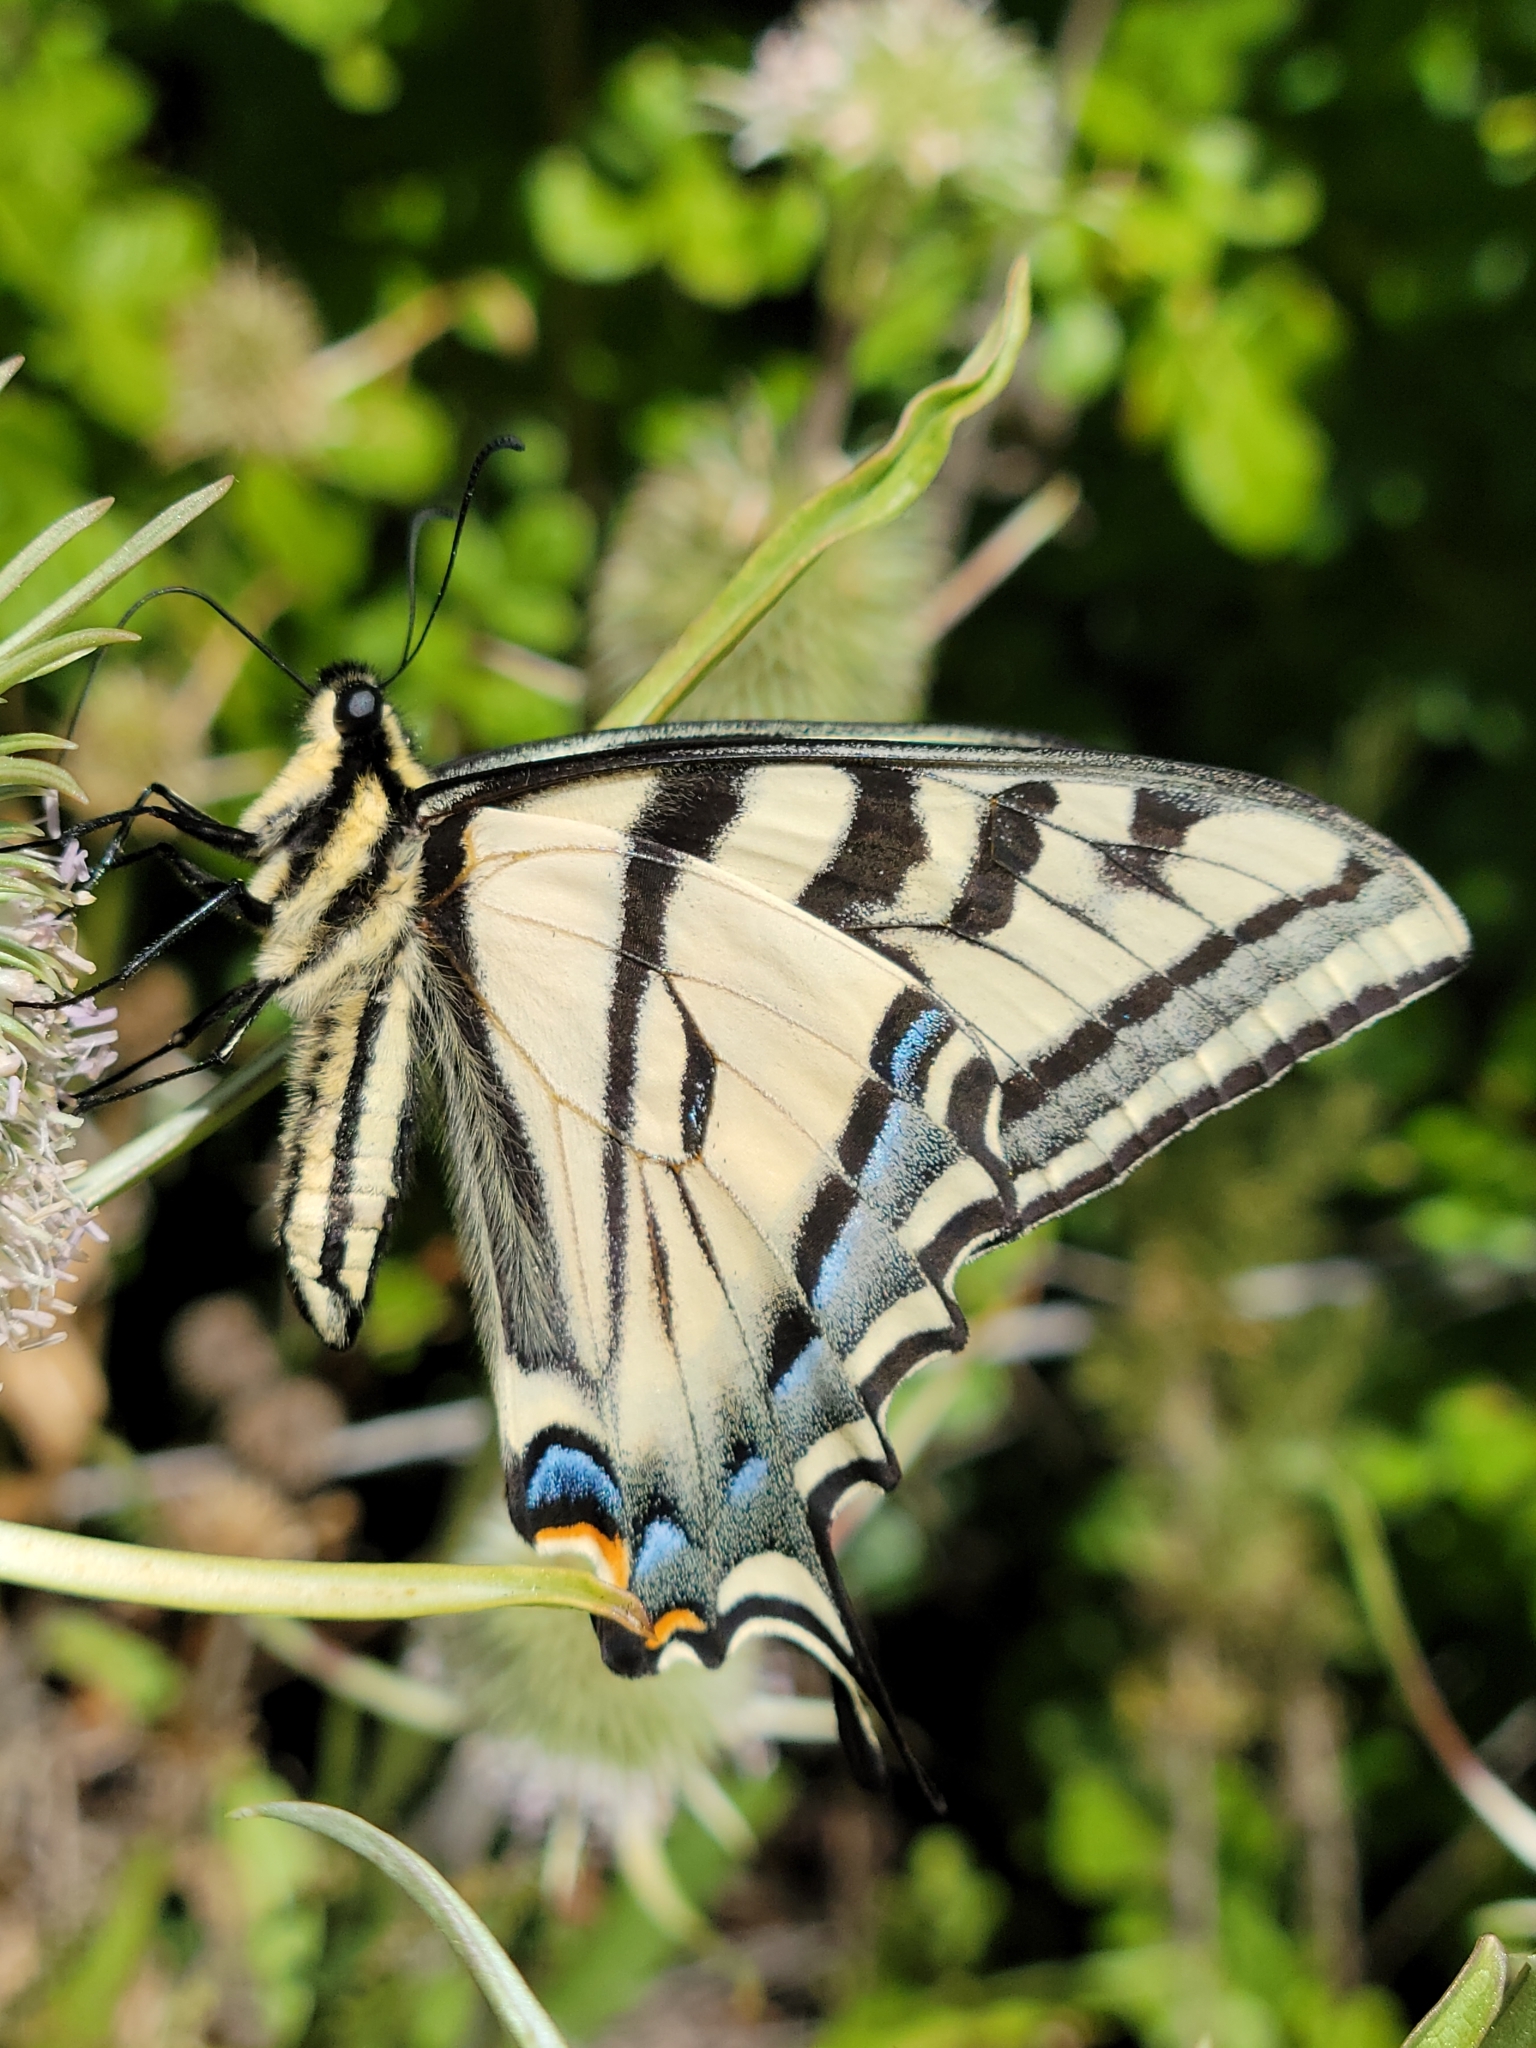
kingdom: Animalia
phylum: Arthropoda
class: Insecta
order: Lepidoptera
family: Papilionidae
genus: Papilio
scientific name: Papilio rutulus
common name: Western tiger swallowtail
